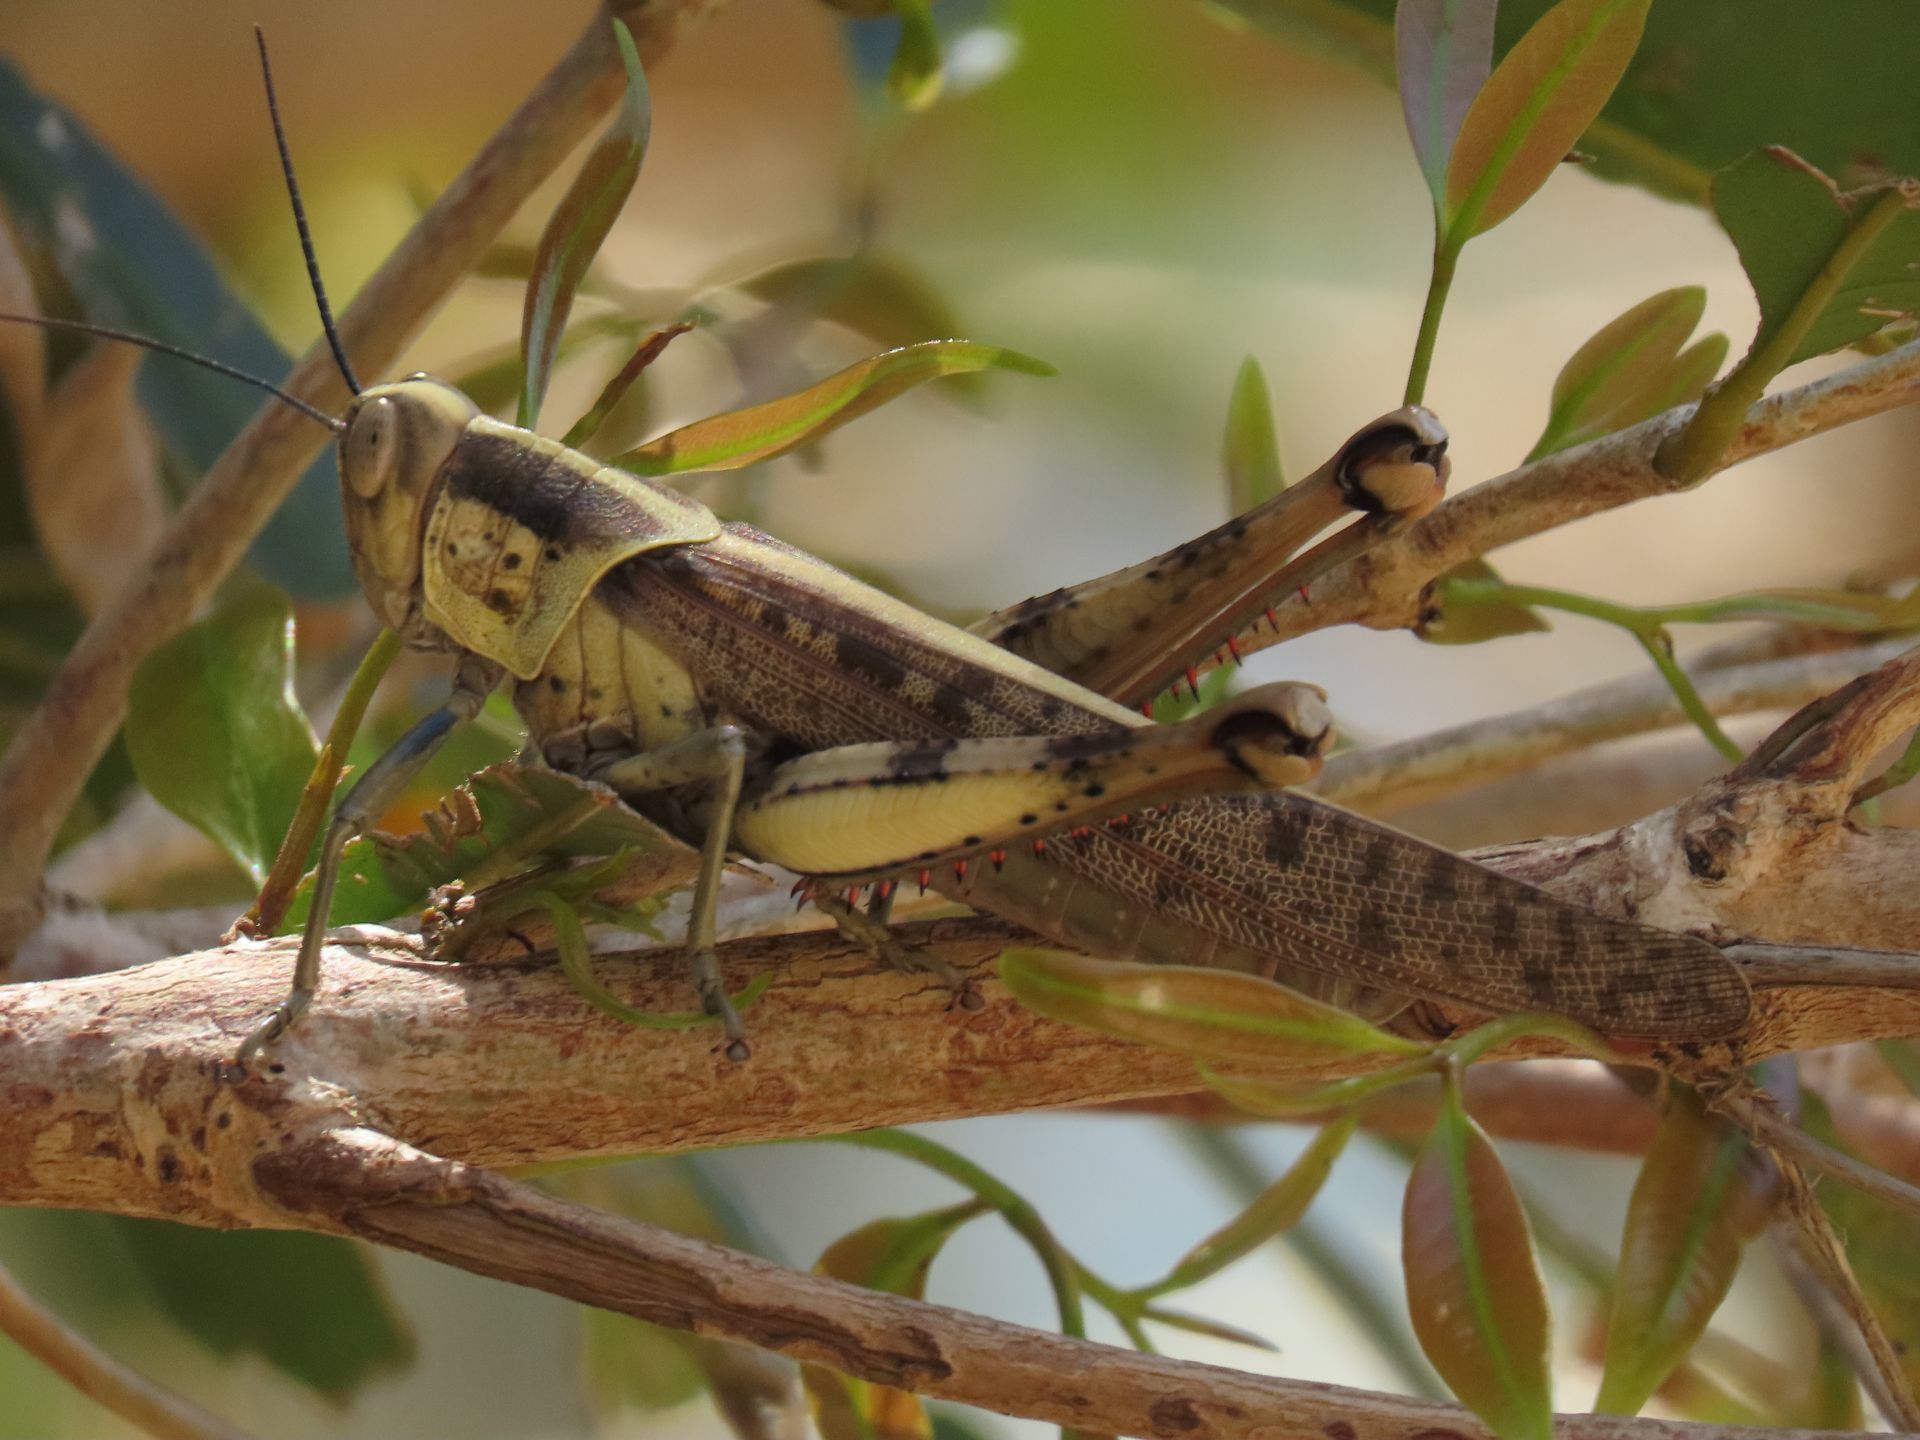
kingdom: Animalia
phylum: Arthropoda
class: Insecta
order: Orthoptera
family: Acrididae
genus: Valanga
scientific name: Valanga irregularis
